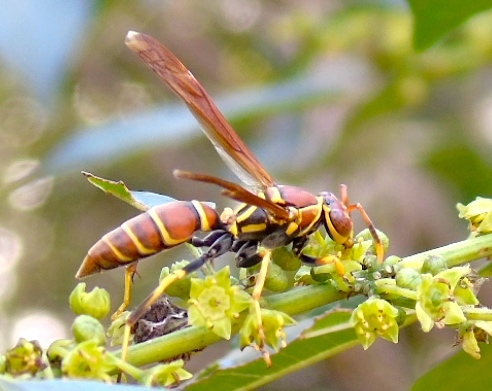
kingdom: Animalia
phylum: Arthropoda
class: Insecta
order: Hymenoptera
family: Eumenidae
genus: Polistes
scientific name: Polistes instabilis
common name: Unstable paper wasp
